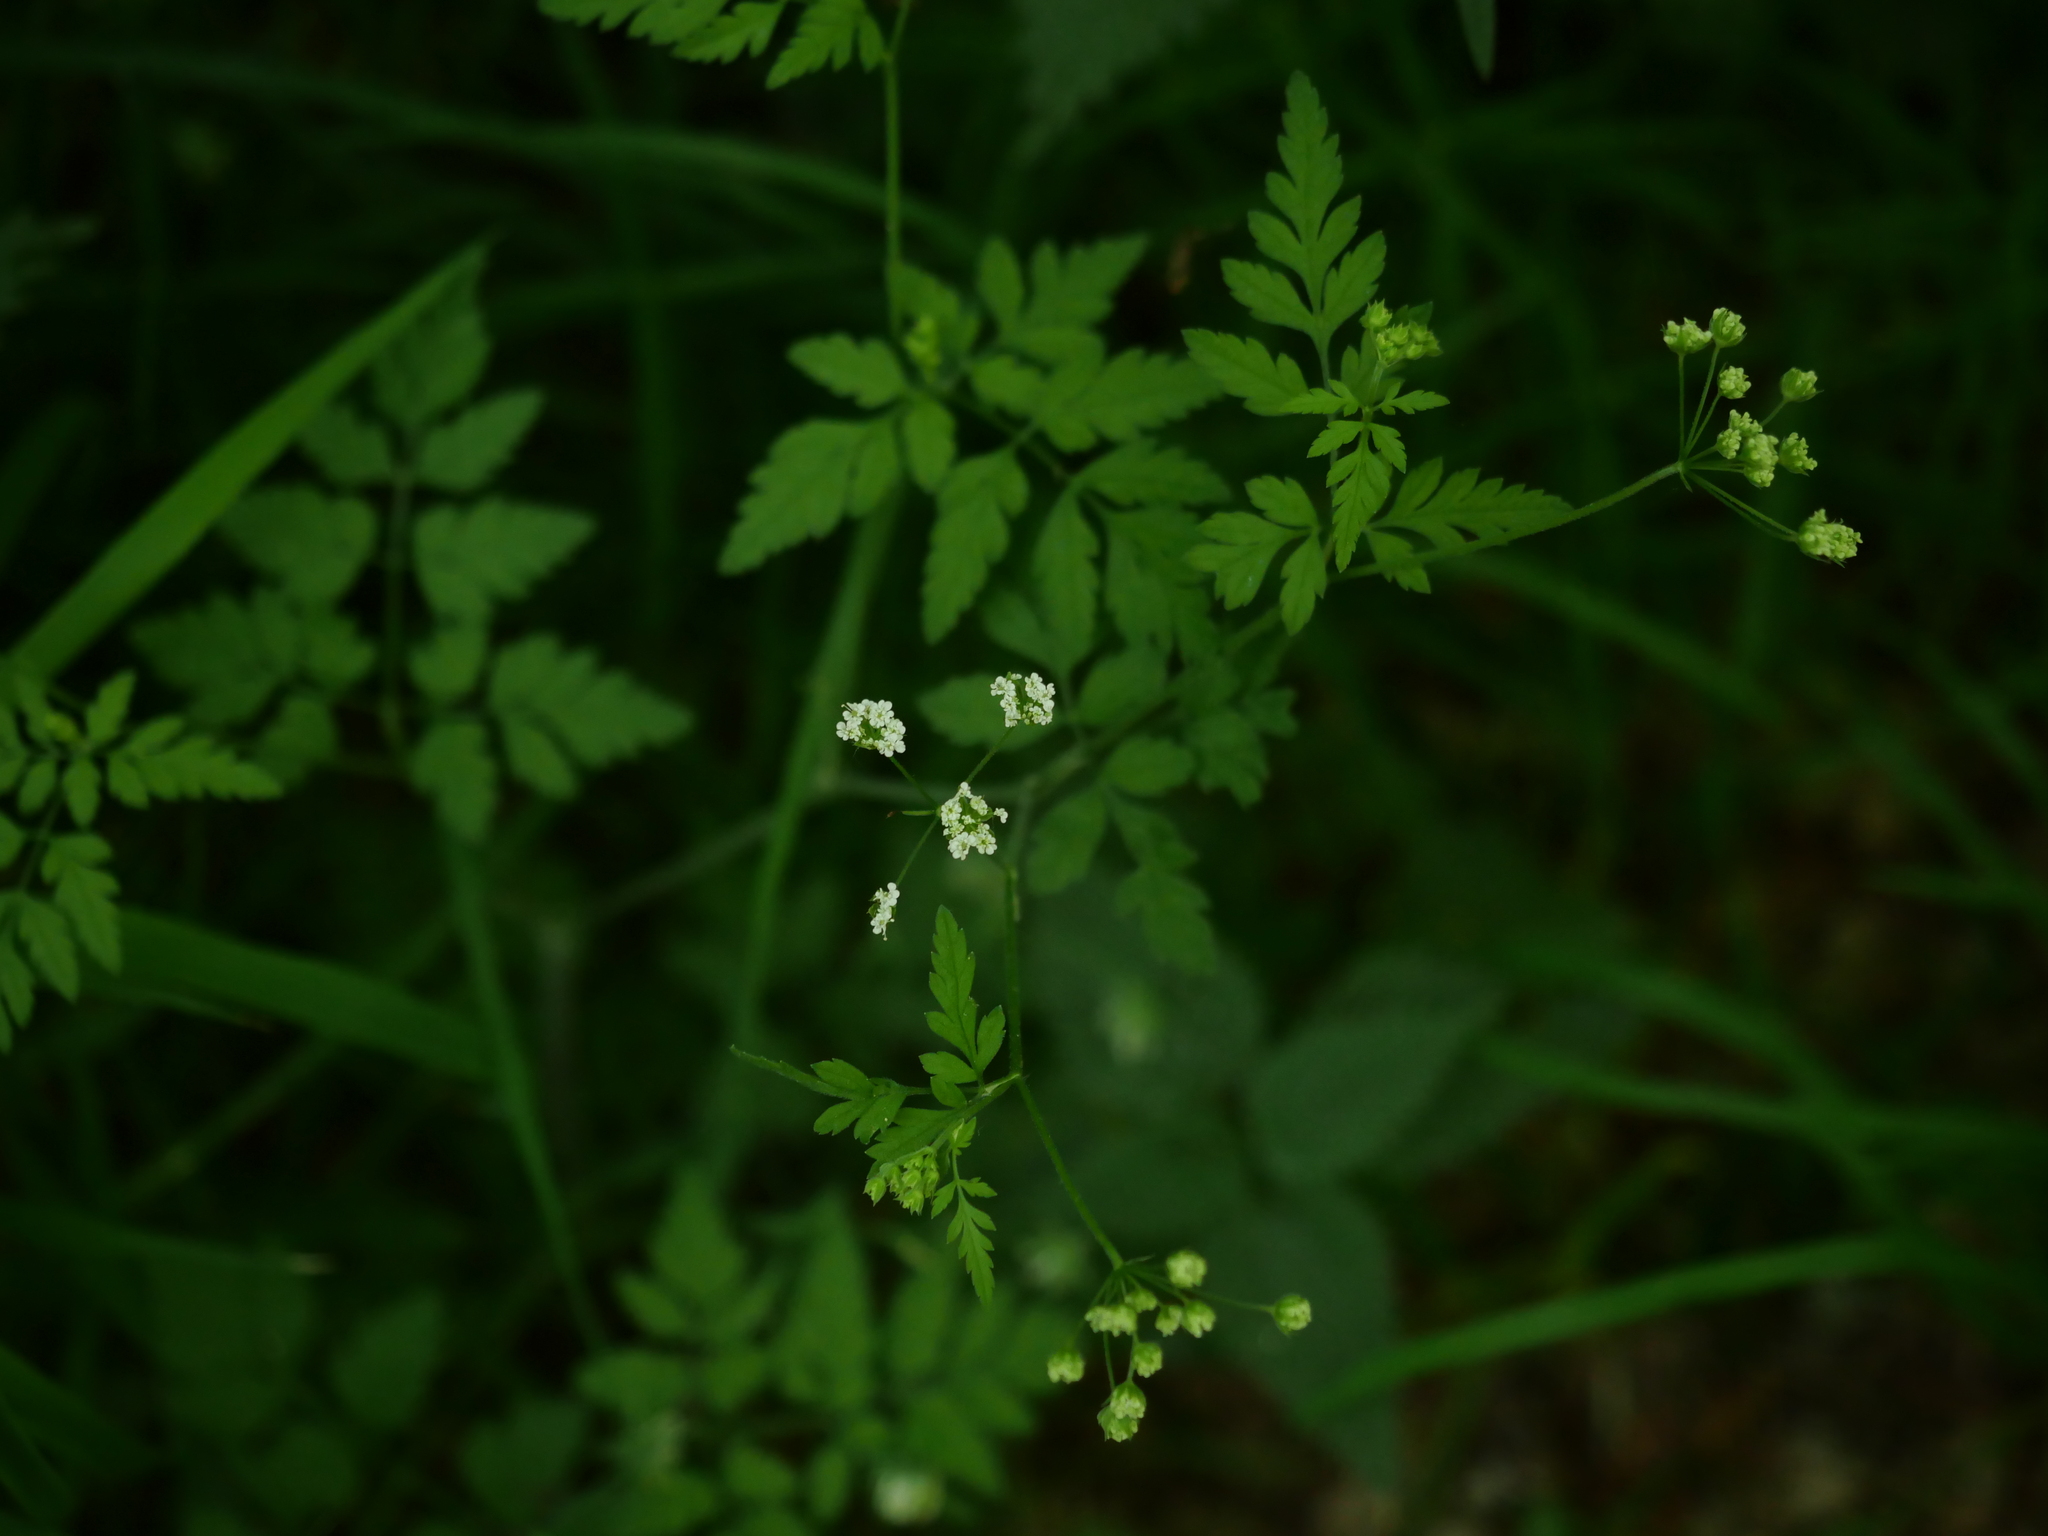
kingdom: Plantae
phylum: Tracheophyta
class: Magnoliopsida
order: Apiales
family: Apiaceae
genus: Chaerophyllum
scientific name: Chaerophyllum temulum
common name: Rough chervil
